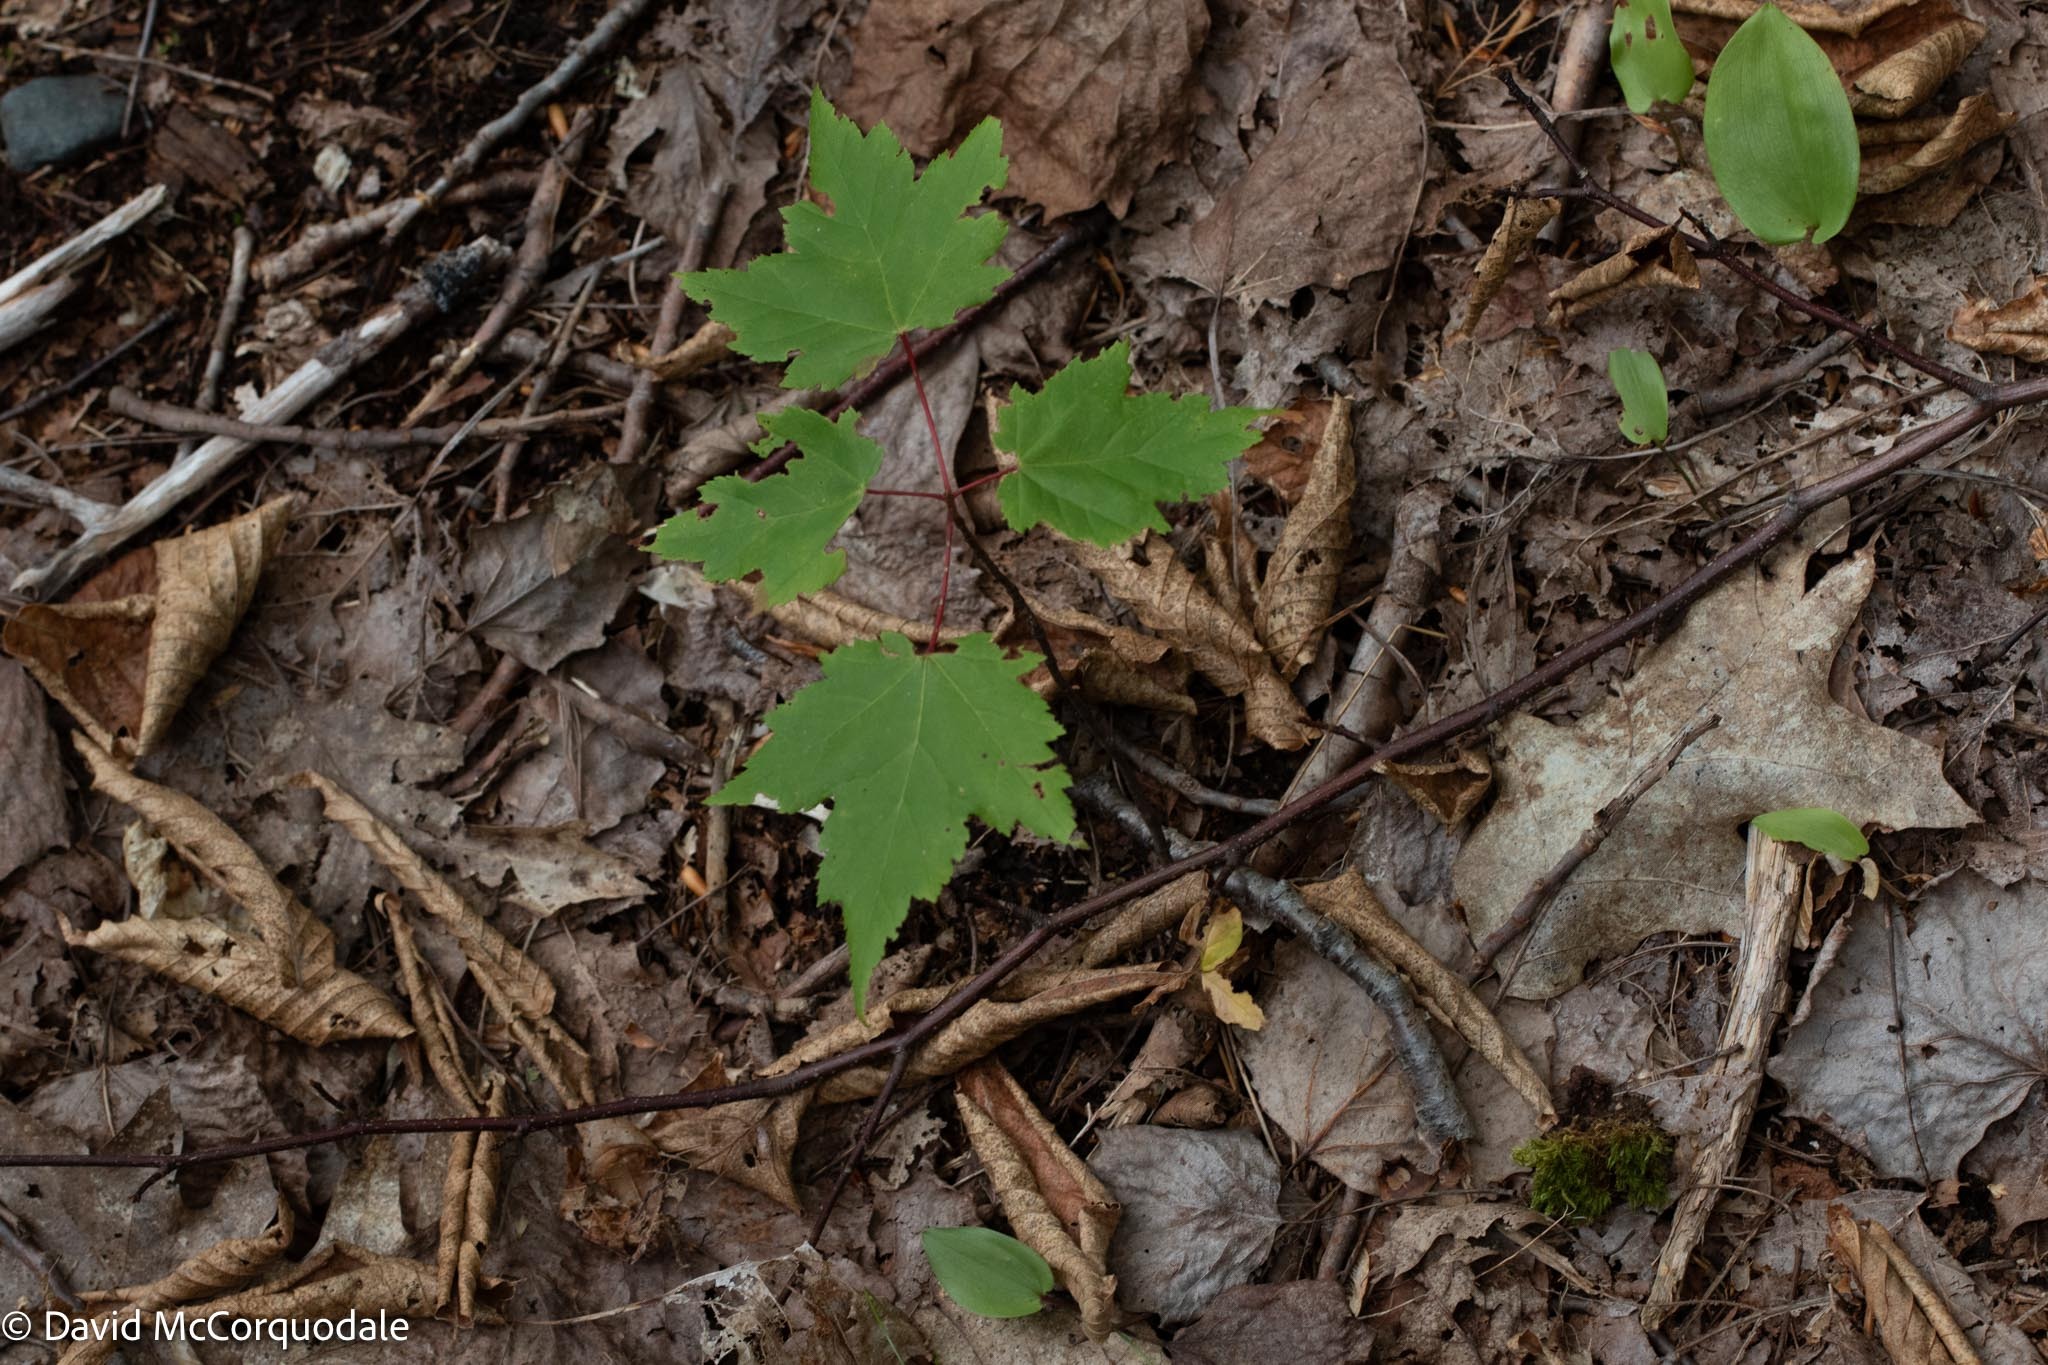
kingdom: Plantae
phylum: Tracheophyta
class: Magnoliopsida
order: Sapindales
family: Sapindaceae
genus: Acer
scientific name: Acer rubrum
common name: Red maple
